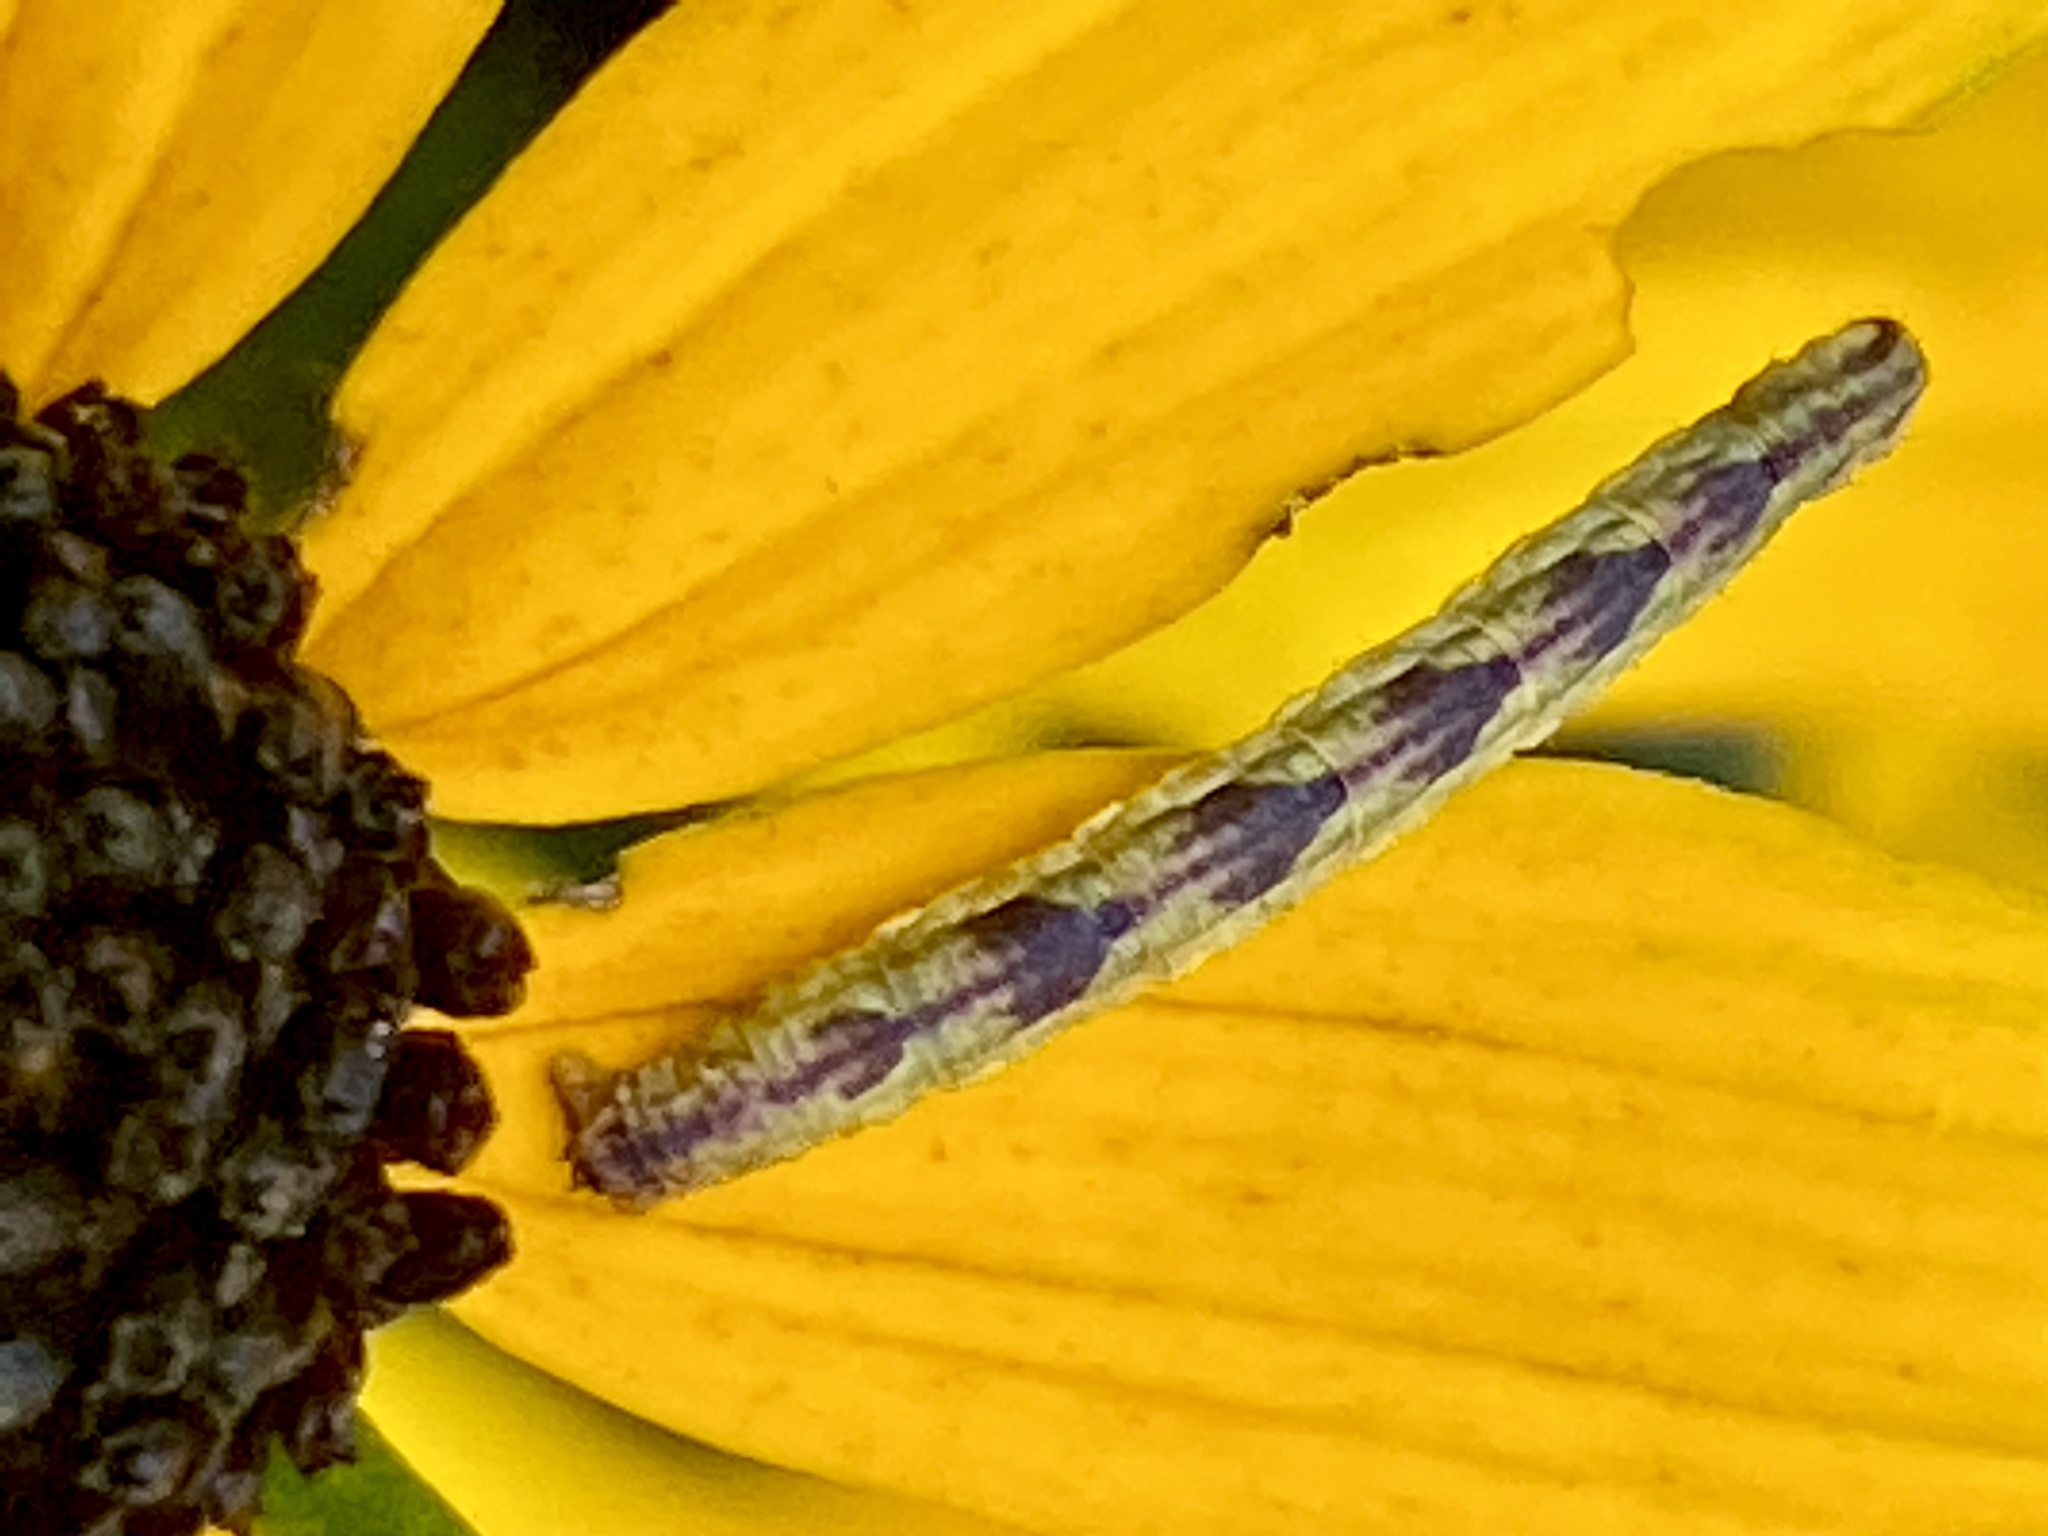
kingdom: Animalia
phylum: Arthropoda
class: Insecta
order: Lepidoptera
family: Geometridae
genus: Eupithecia
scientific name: Eupithecia miserulata
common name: Common eupithecia
